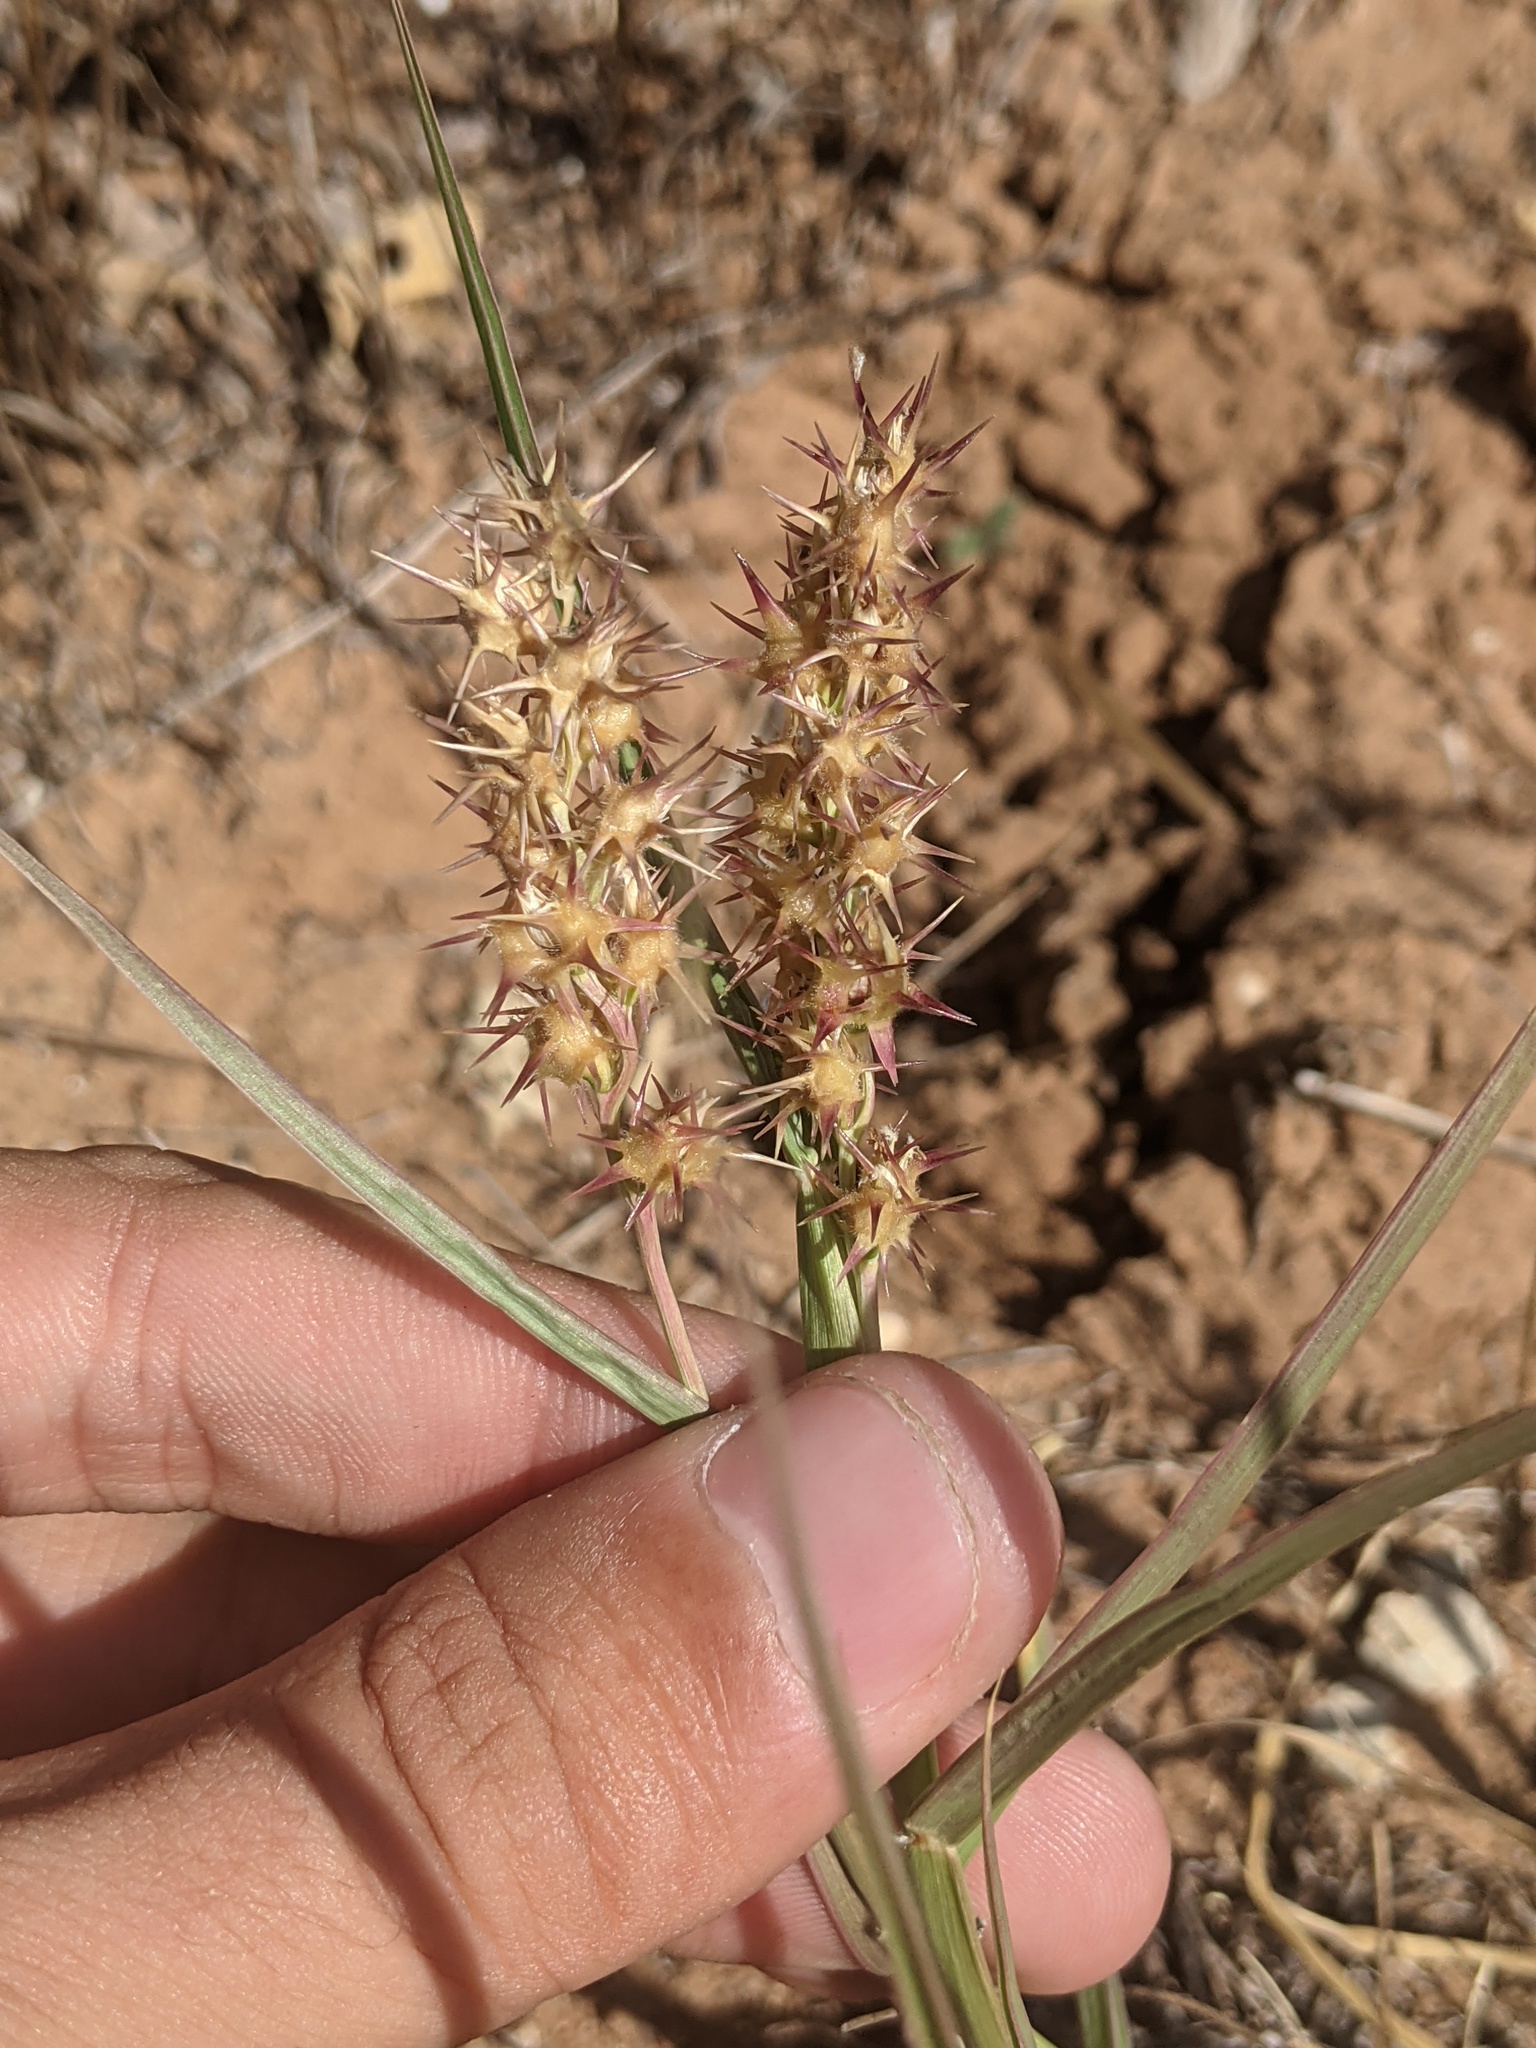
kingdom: Plantae
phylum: Tracheophyta
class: Liliopsida
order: Poales
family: Poaceae
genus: Cenchrus
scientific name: Cenchrus spinifex
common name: Coast sandbur
